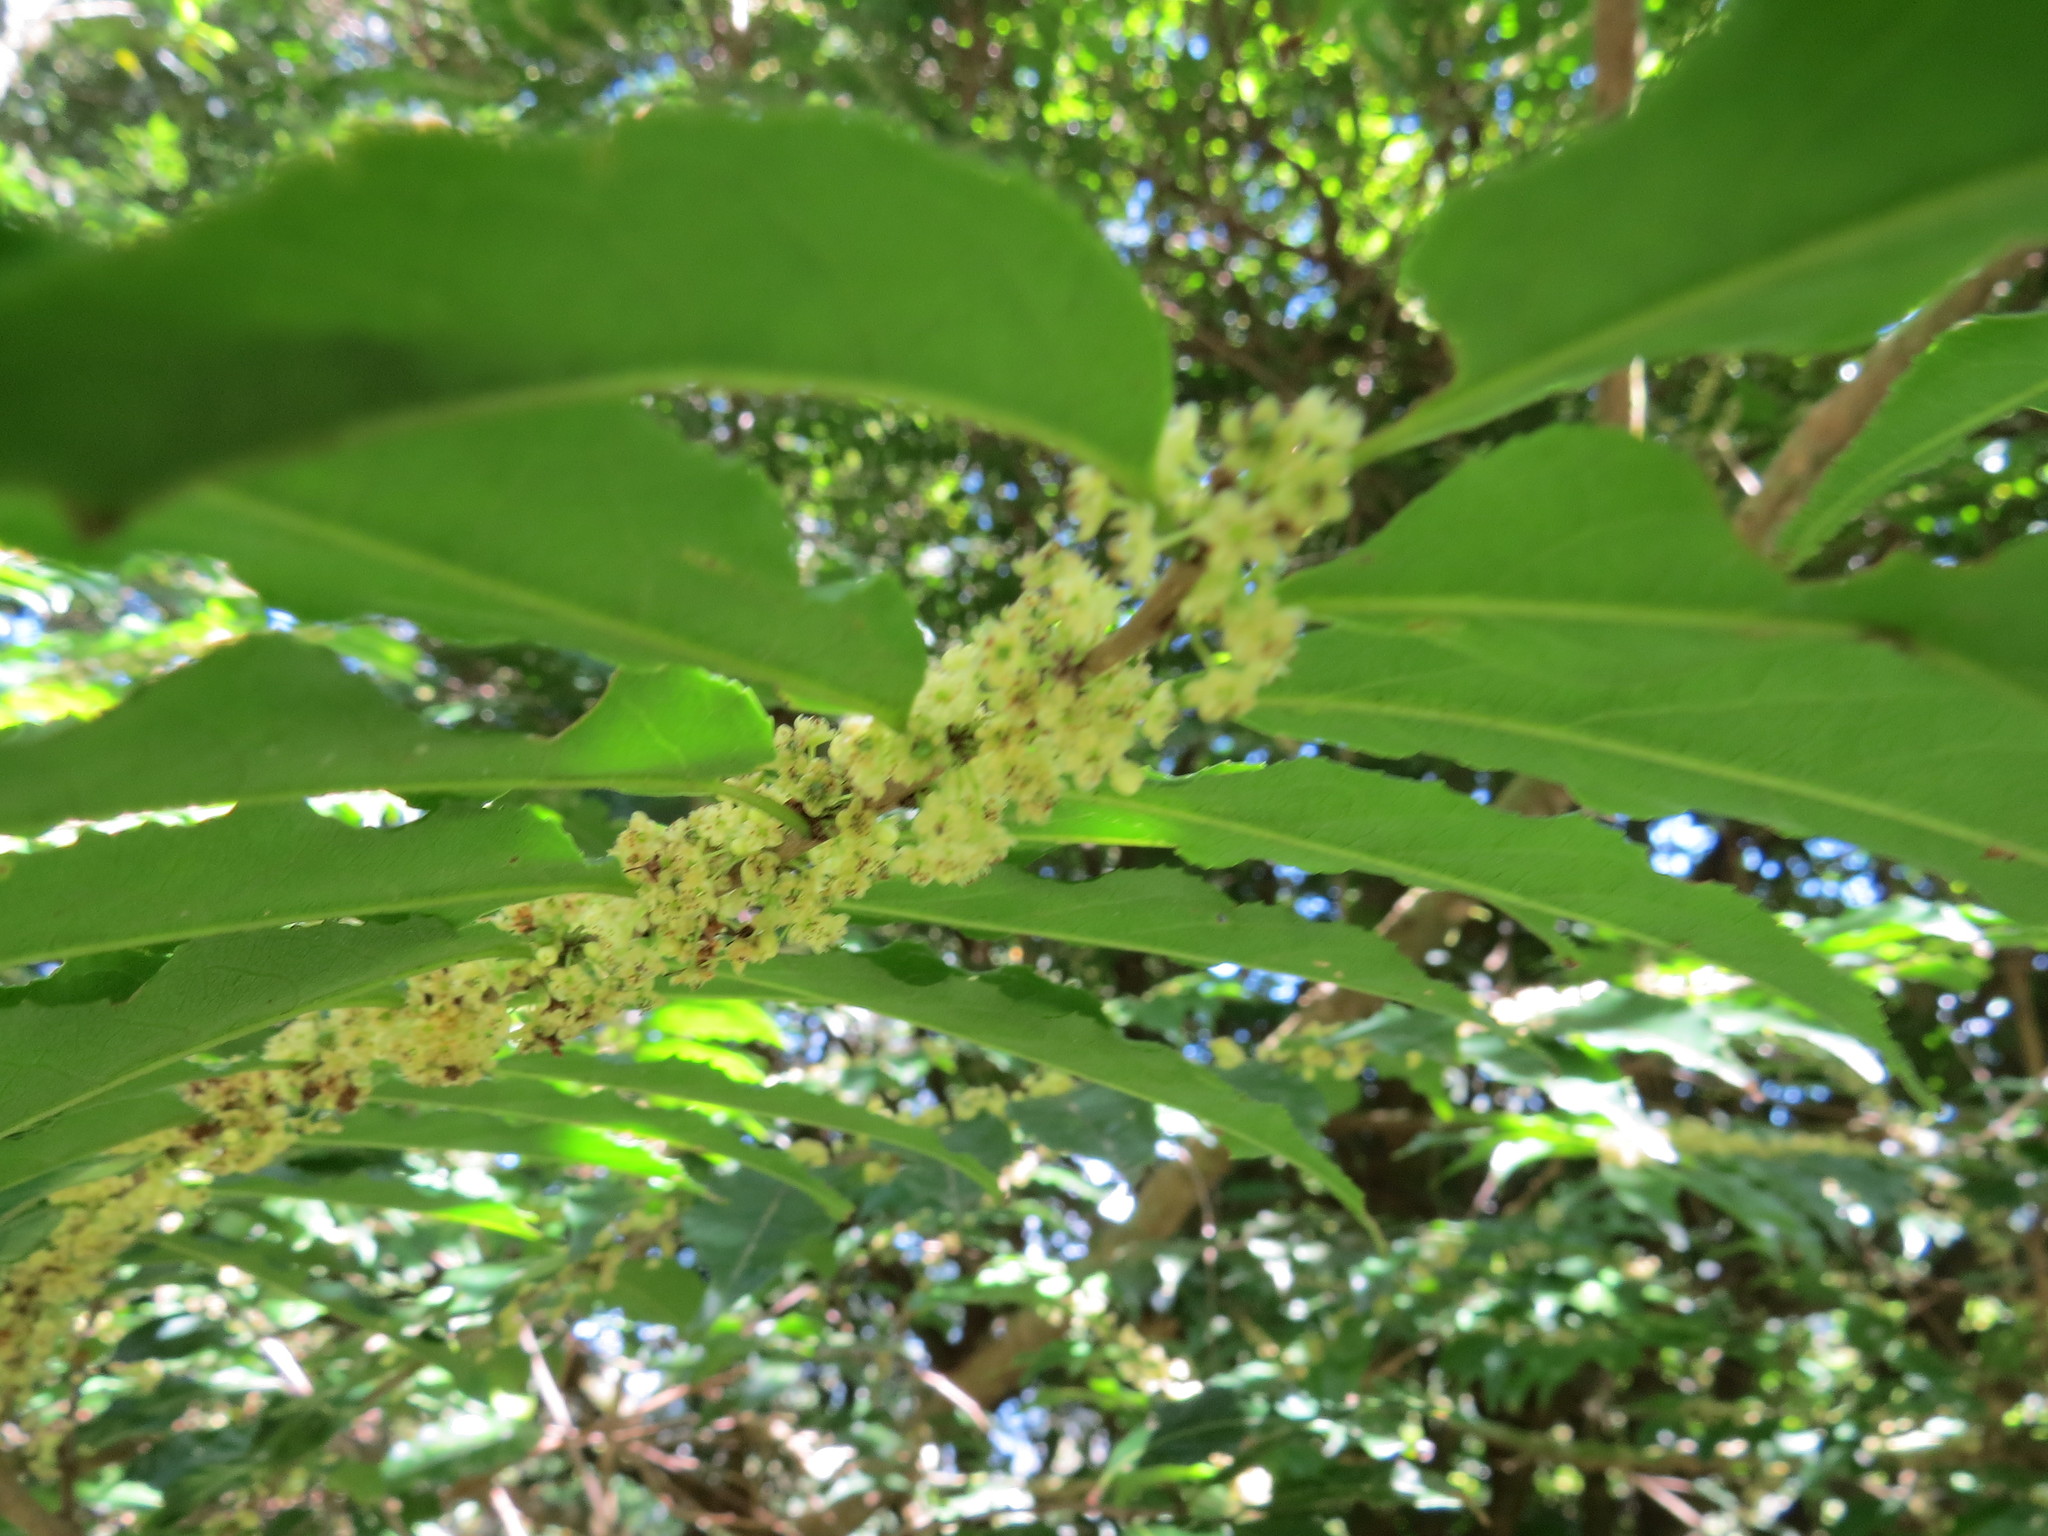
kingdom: Plantae
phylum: Tracheophyta
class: Magnoliopsida
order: Malpighiales
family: Salicaceae
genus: Casearia
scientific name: Casearia sylvestris
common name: Wild sage
